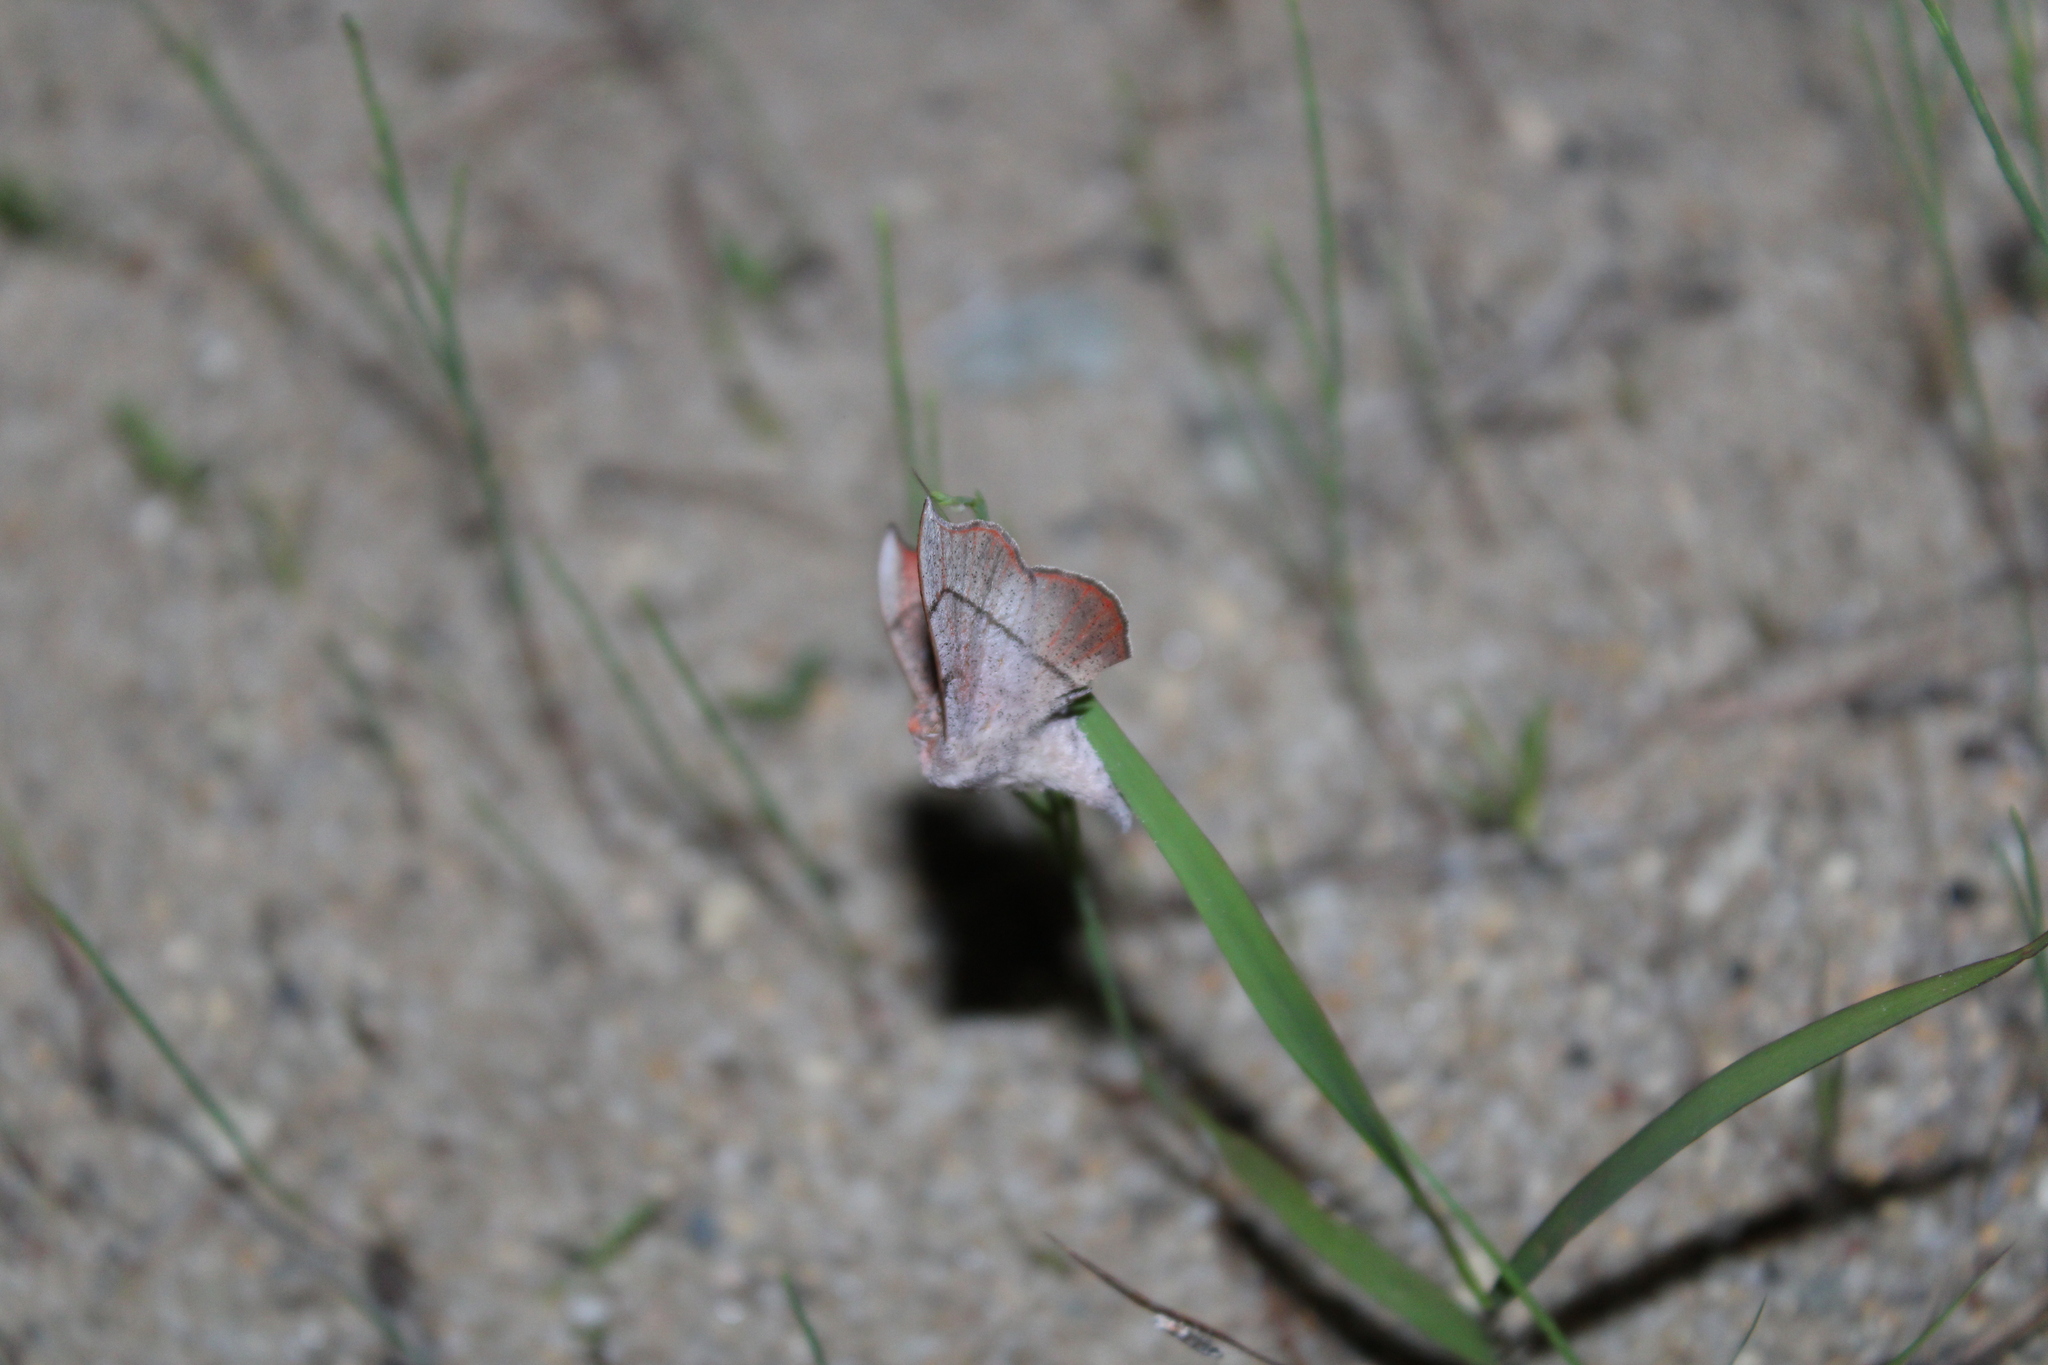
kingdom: Animalia
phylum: Arthropoda
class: Insecta
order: Lepidoptera
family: Mimallonidae
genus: Cicinnus
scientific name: Cicinnus melsheimeri
